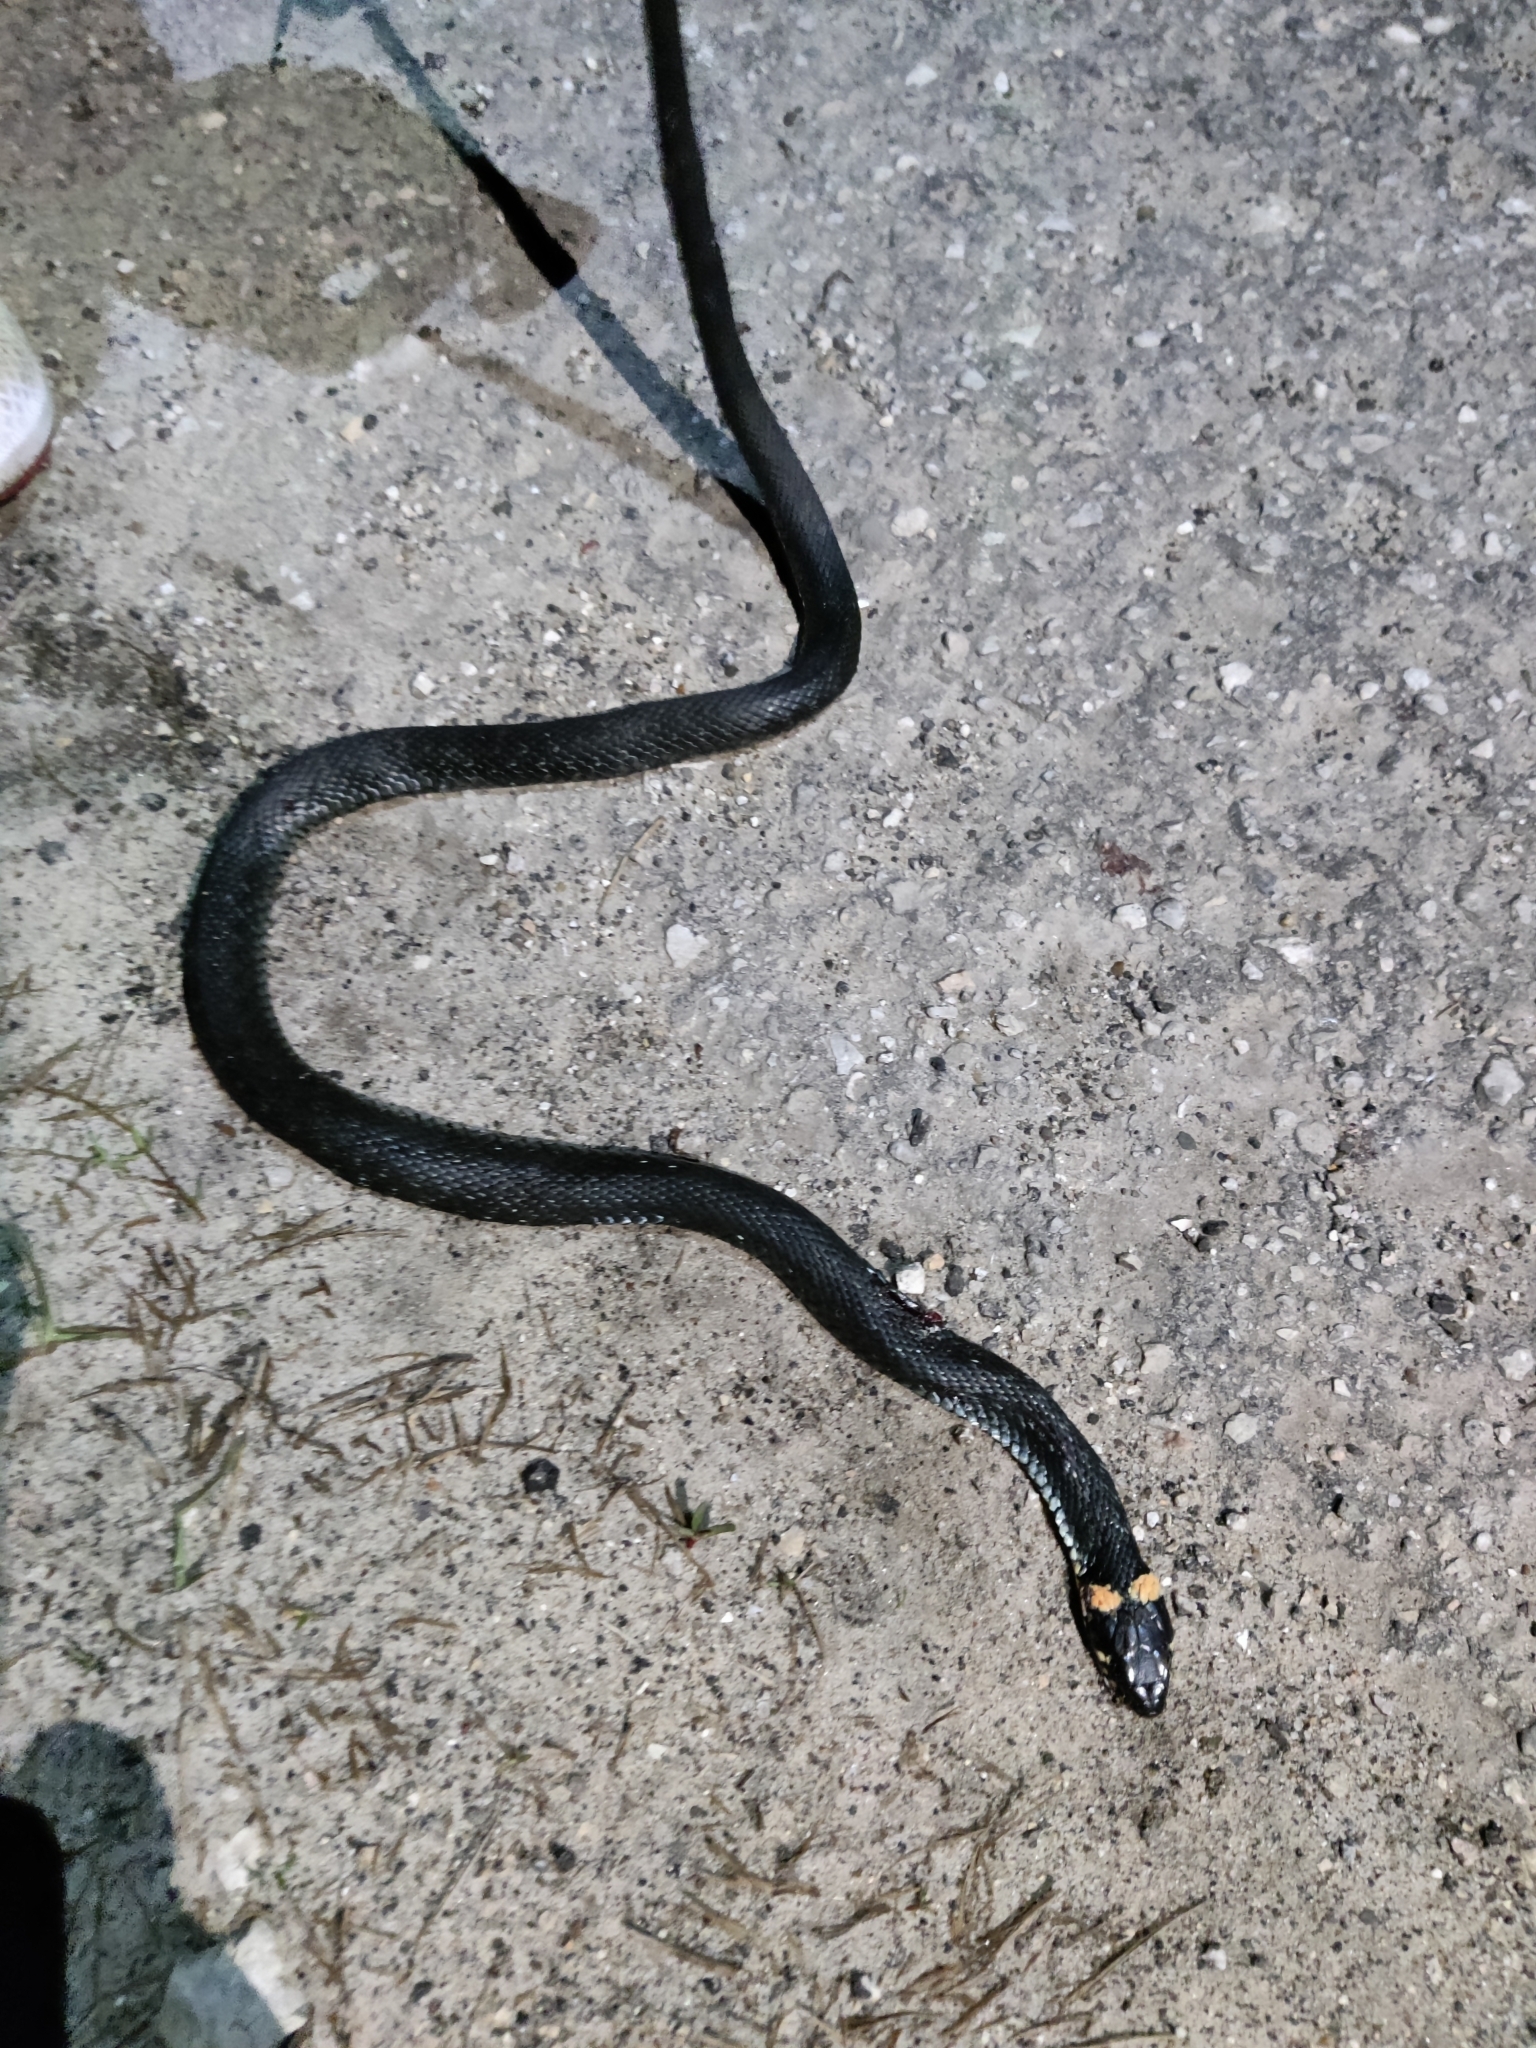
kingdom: Animalia
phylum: Chordata
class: Squamata
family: Colubridae
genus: Natrix
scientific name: Natrix natrix
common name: Grass snake
